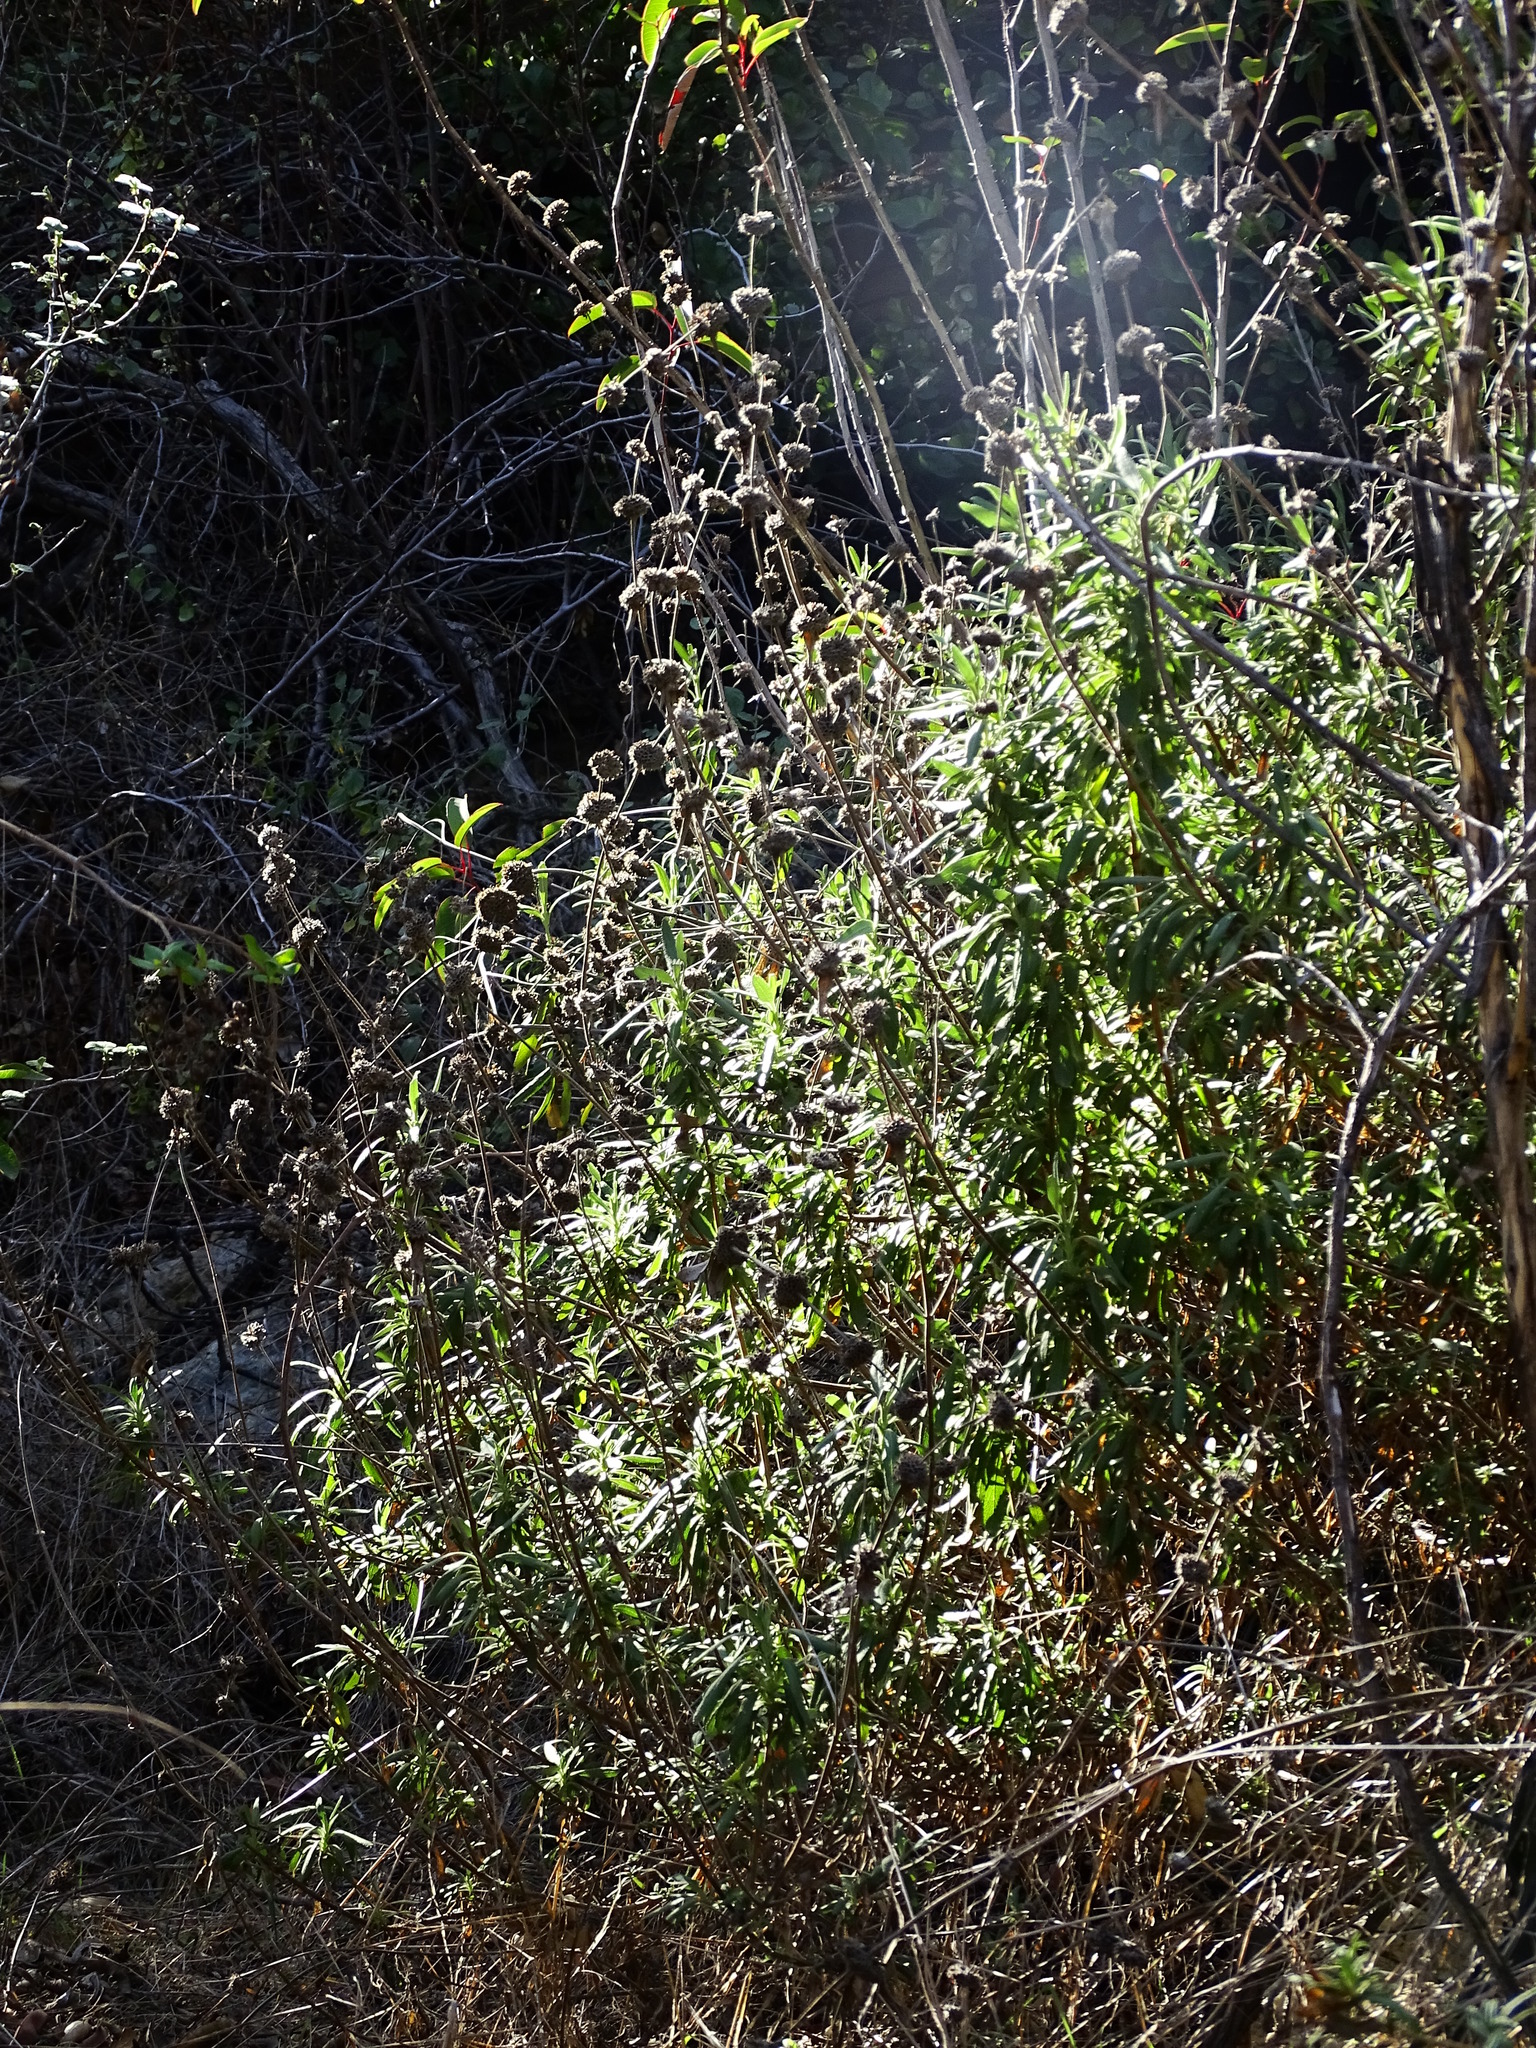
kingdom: Plantae
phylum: Tracheophyta
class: Magnoliopsida
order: Lamiales
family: Lamiaceae
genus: Salvia
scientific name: Salvia mellifera
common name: Black sage
